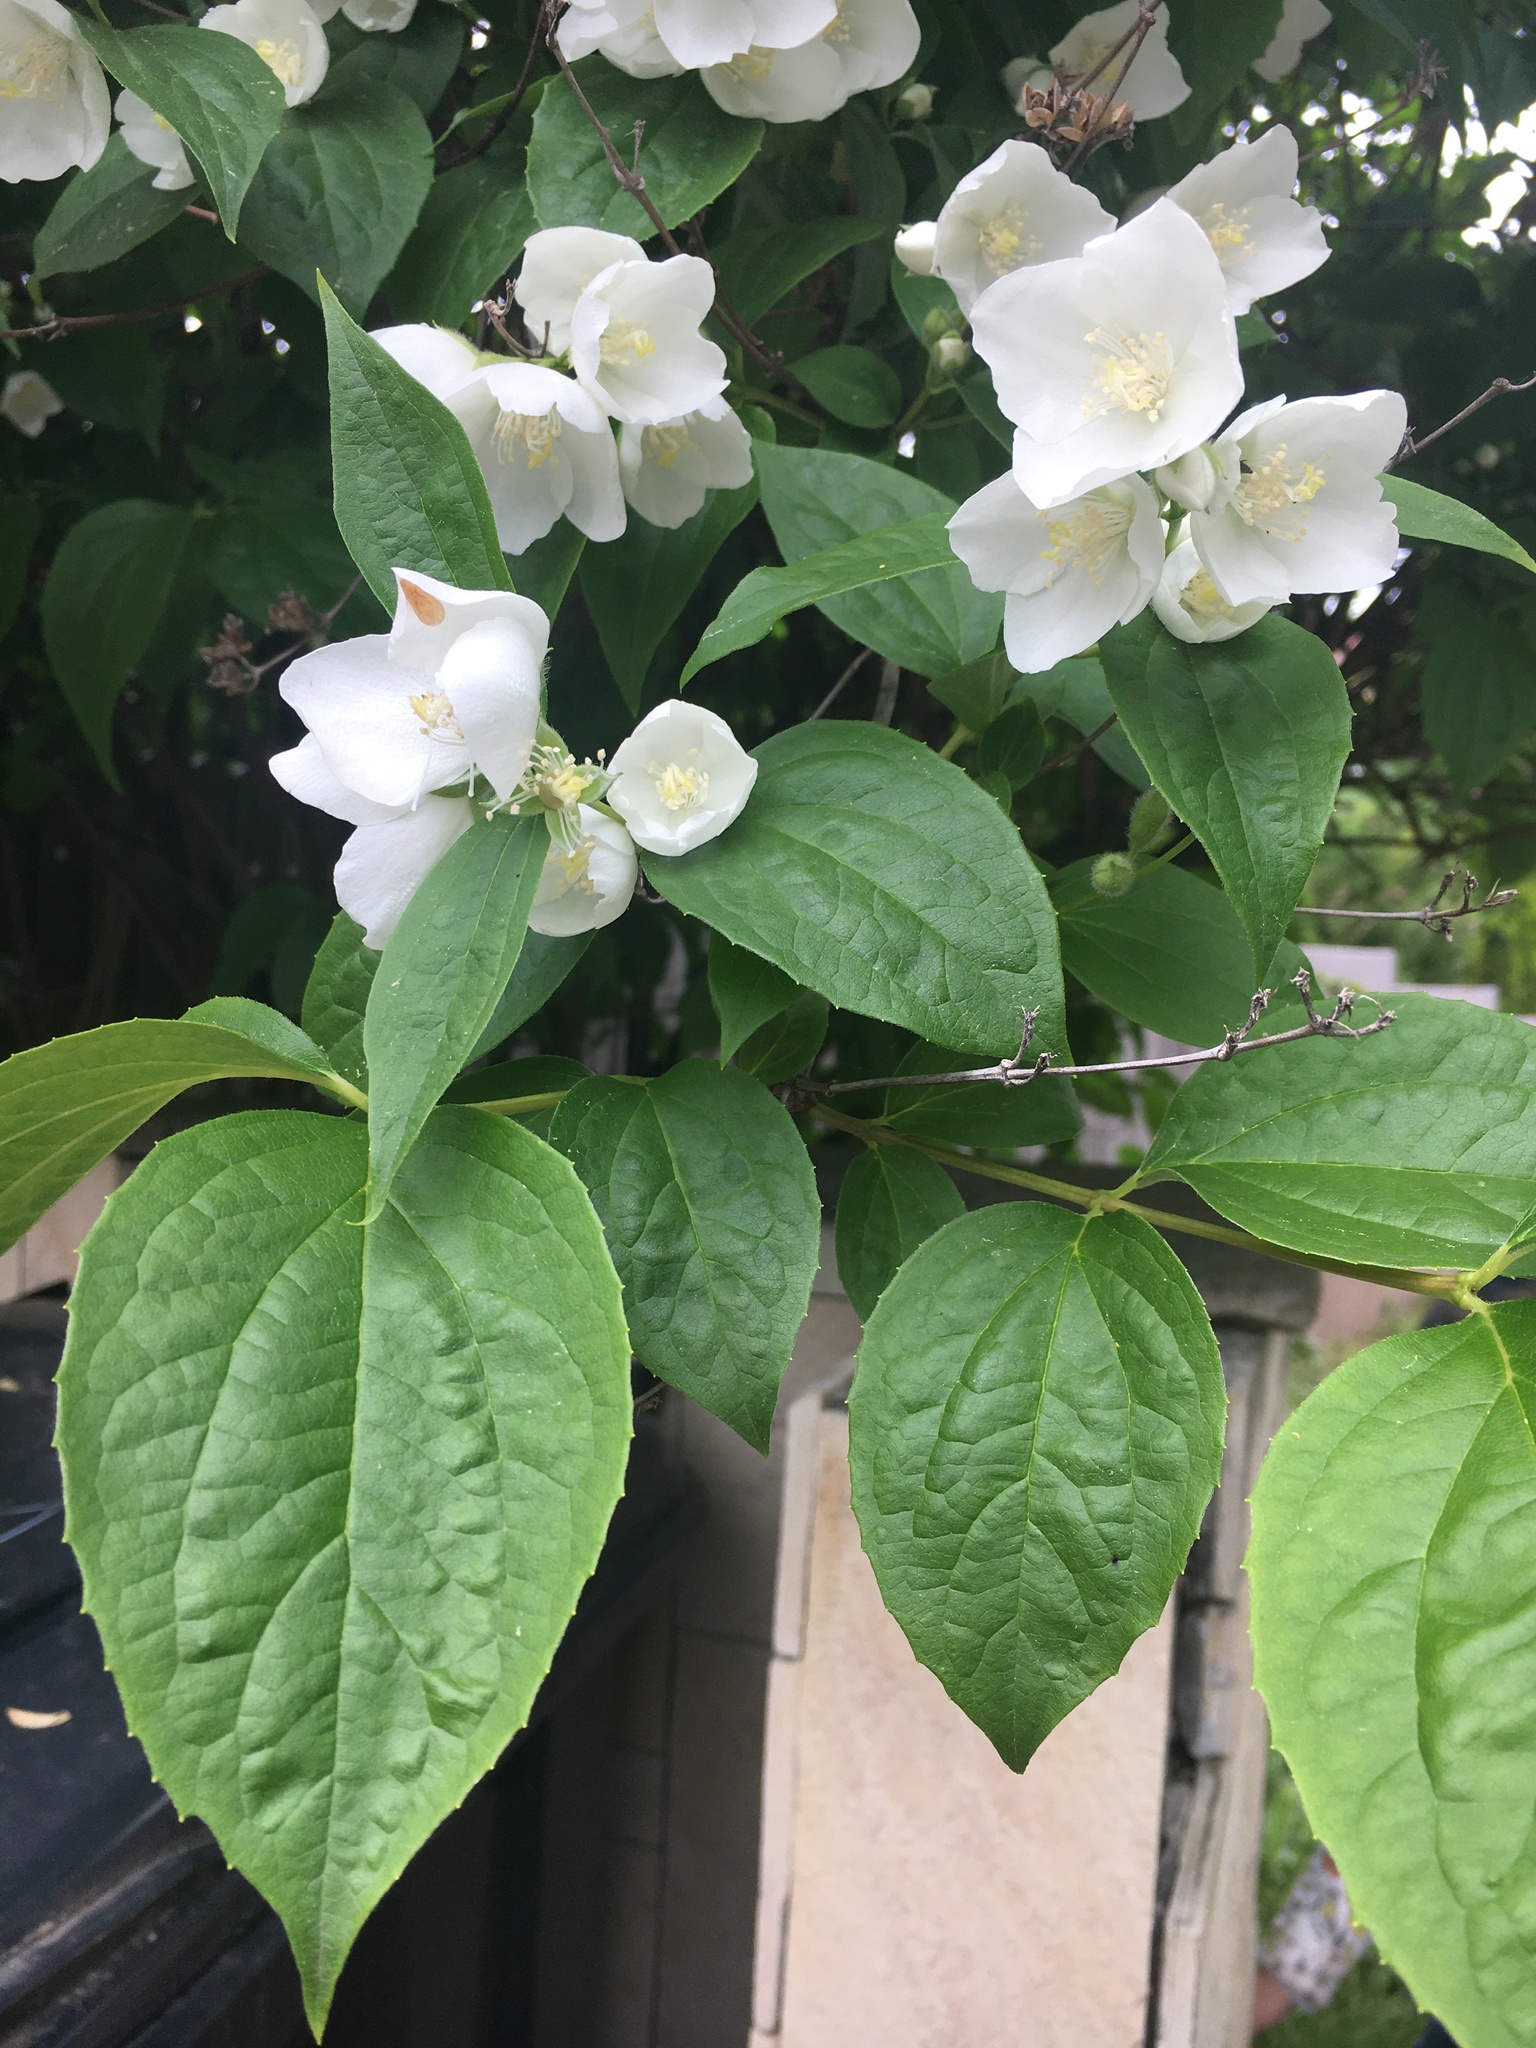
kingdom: Plantae
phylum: Tracheophyta
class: Magnoliopsida
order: Cornales
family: Hydrangeaceae
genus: Philadelphus
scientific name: Philadelphus coronarius
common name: Mock orange
